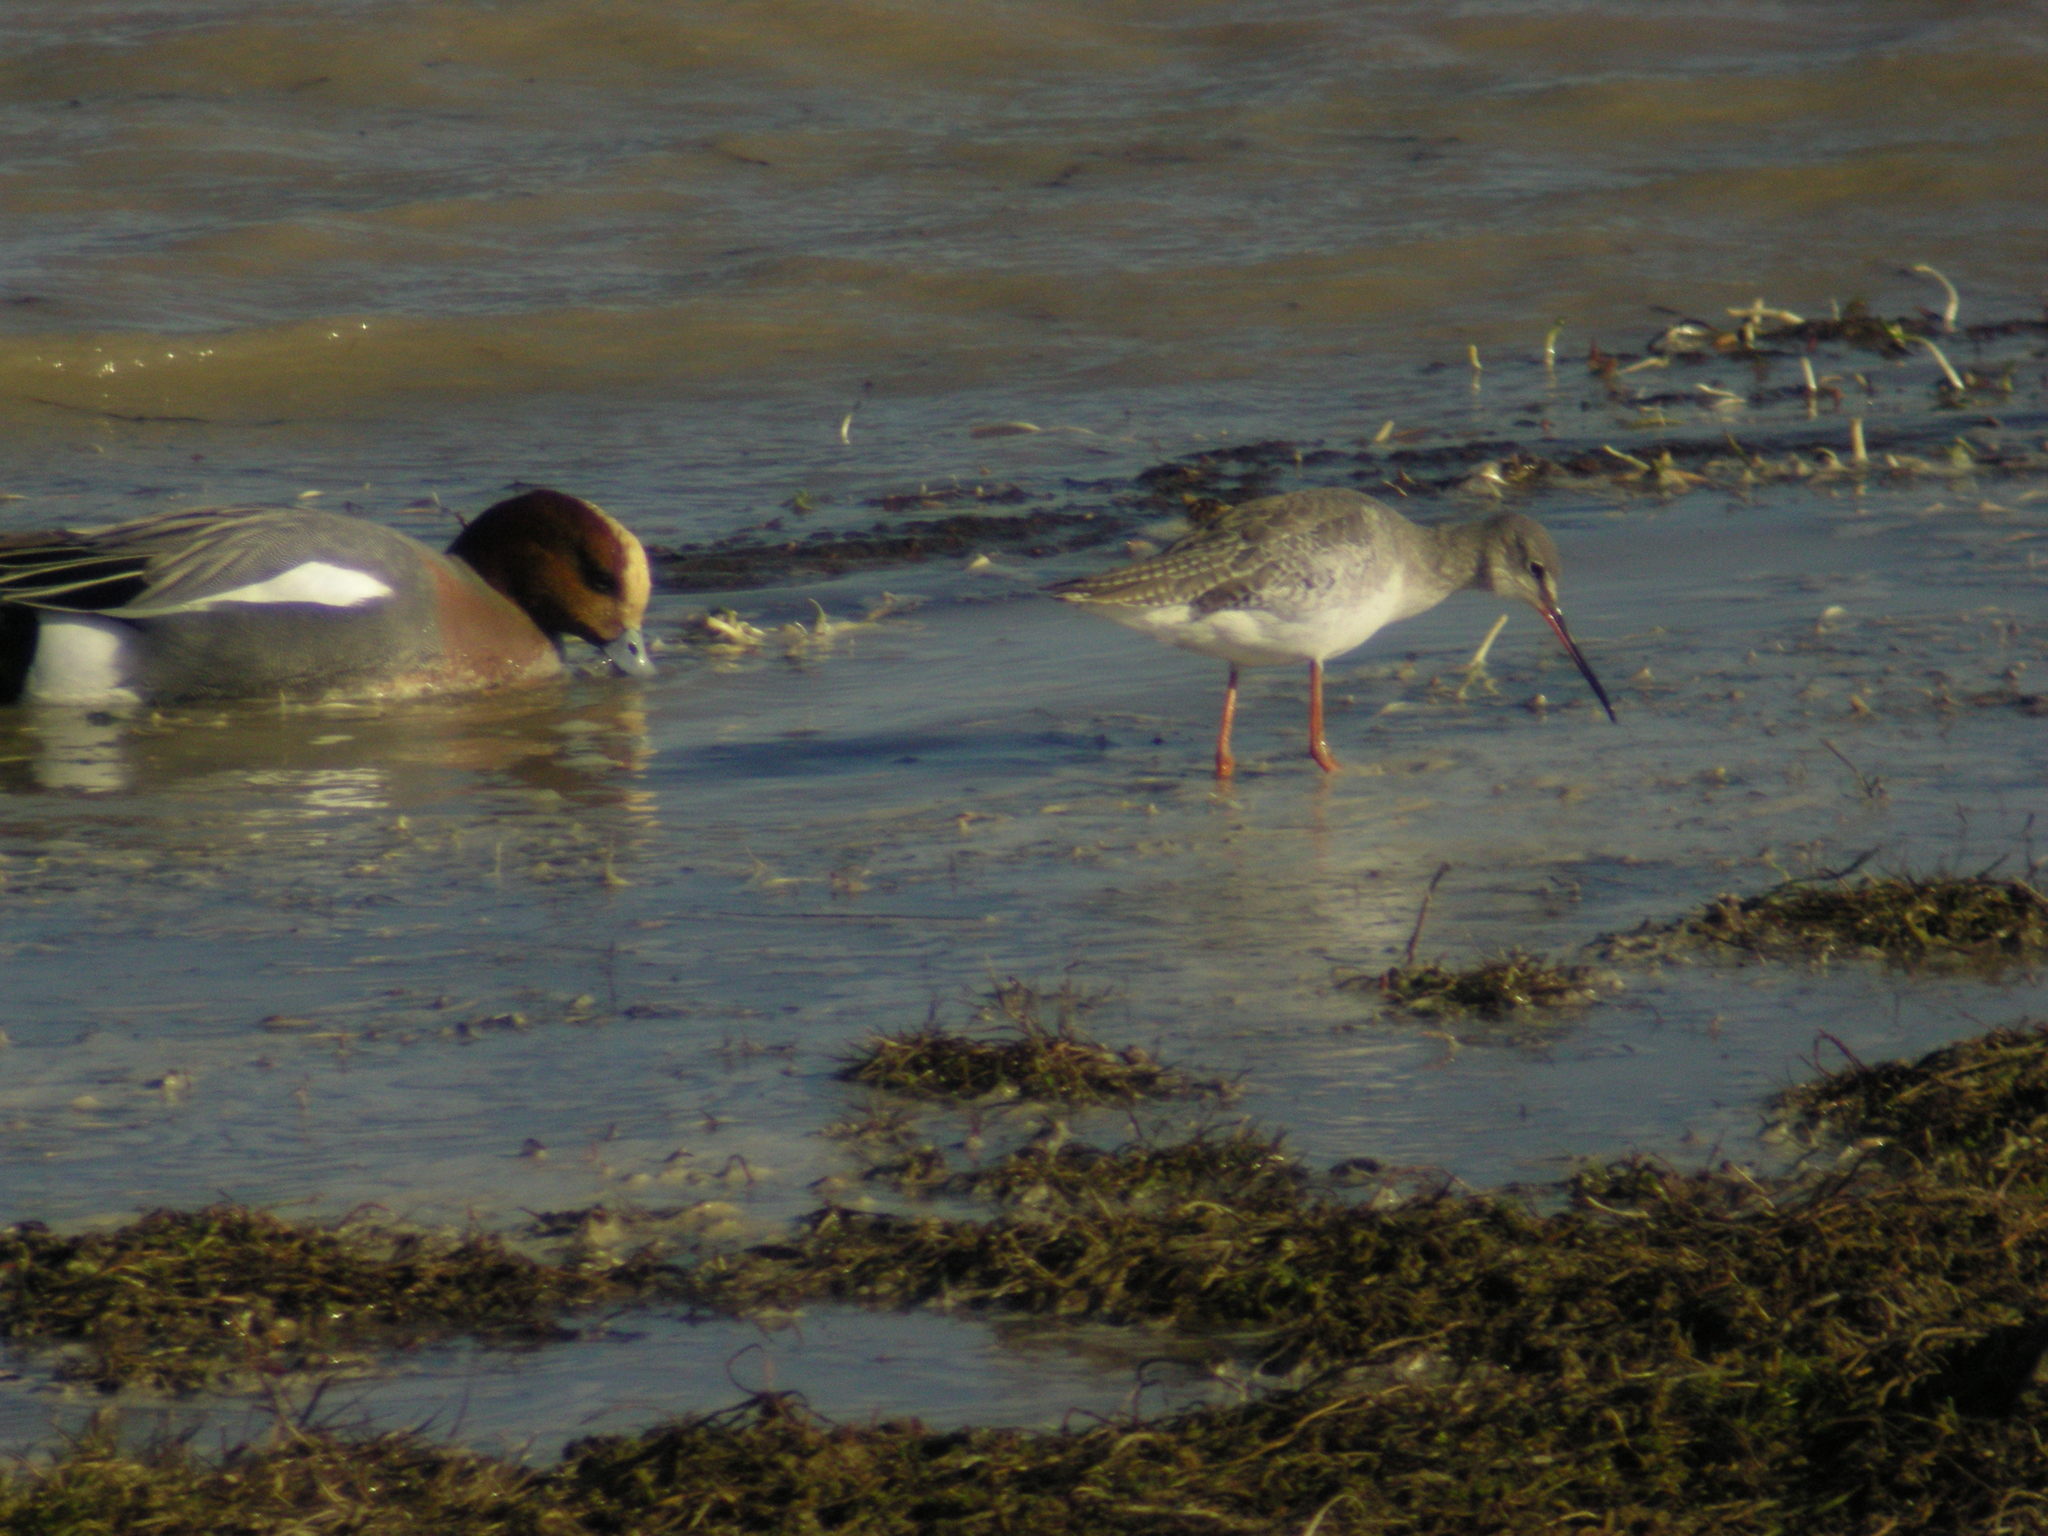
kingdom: Animalia
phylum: Chordata
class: Aves
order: Charadriiformes
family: Scolopacidae
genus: Tringa
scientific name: Tringa erythropus
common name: Spotted redshank
